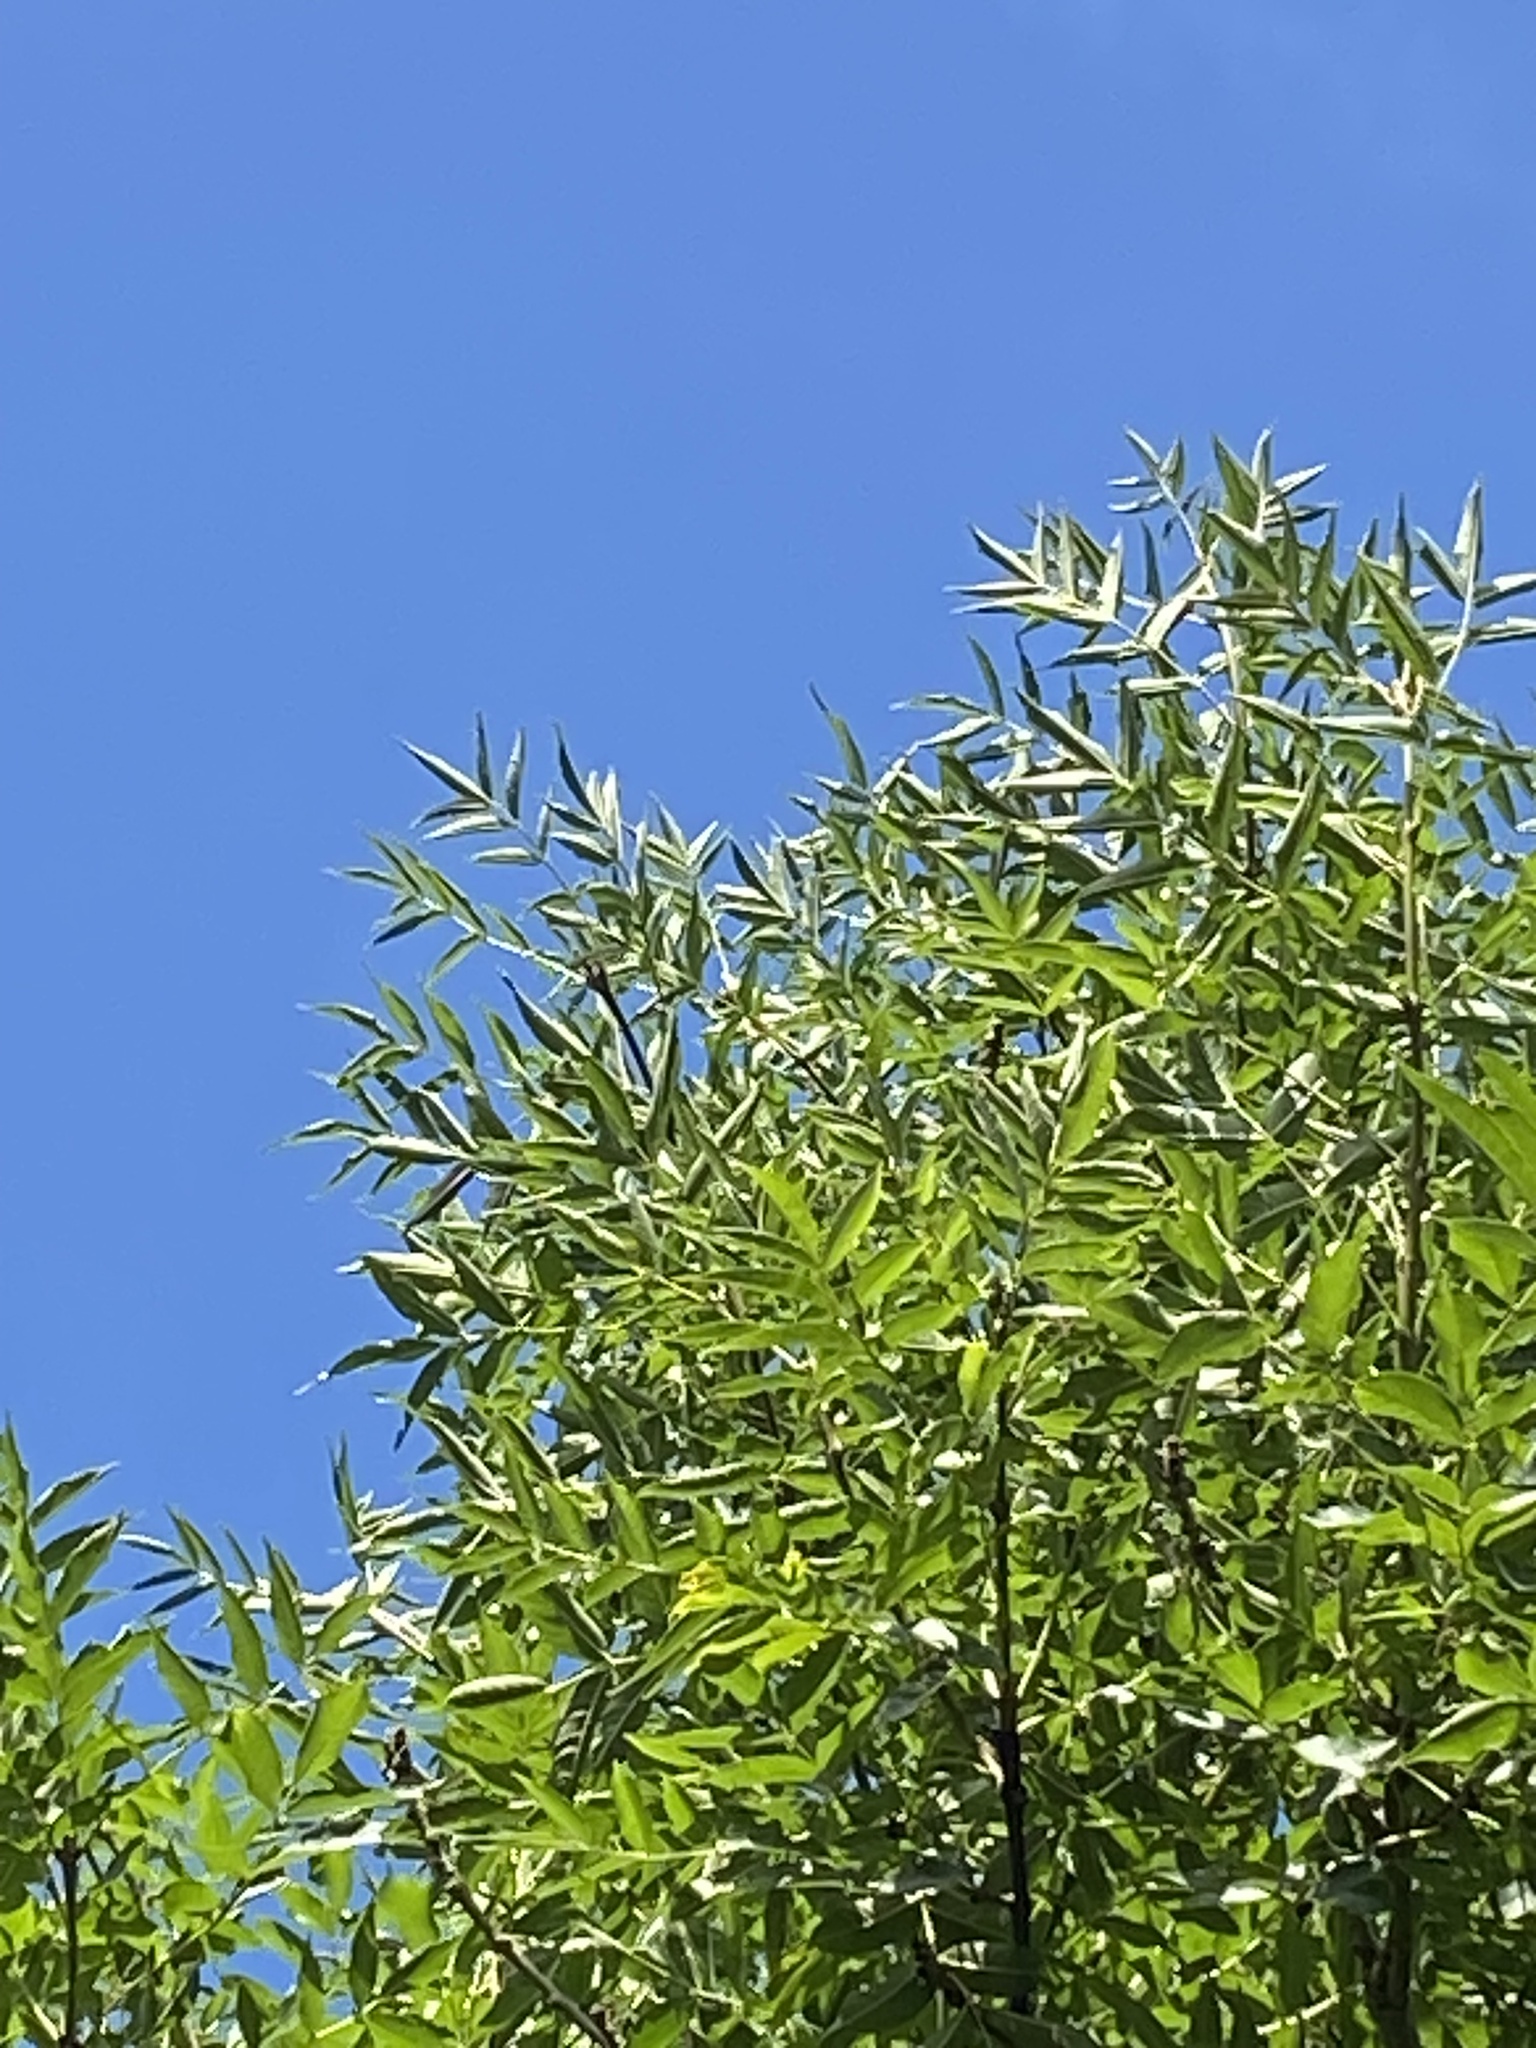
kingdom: Plantae
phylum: Tracheophyta
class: Magnoliopsida
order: Lamiales
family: Oleaceae
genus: Fraxinus
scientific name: Fraxinus excelsior
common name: European ash
